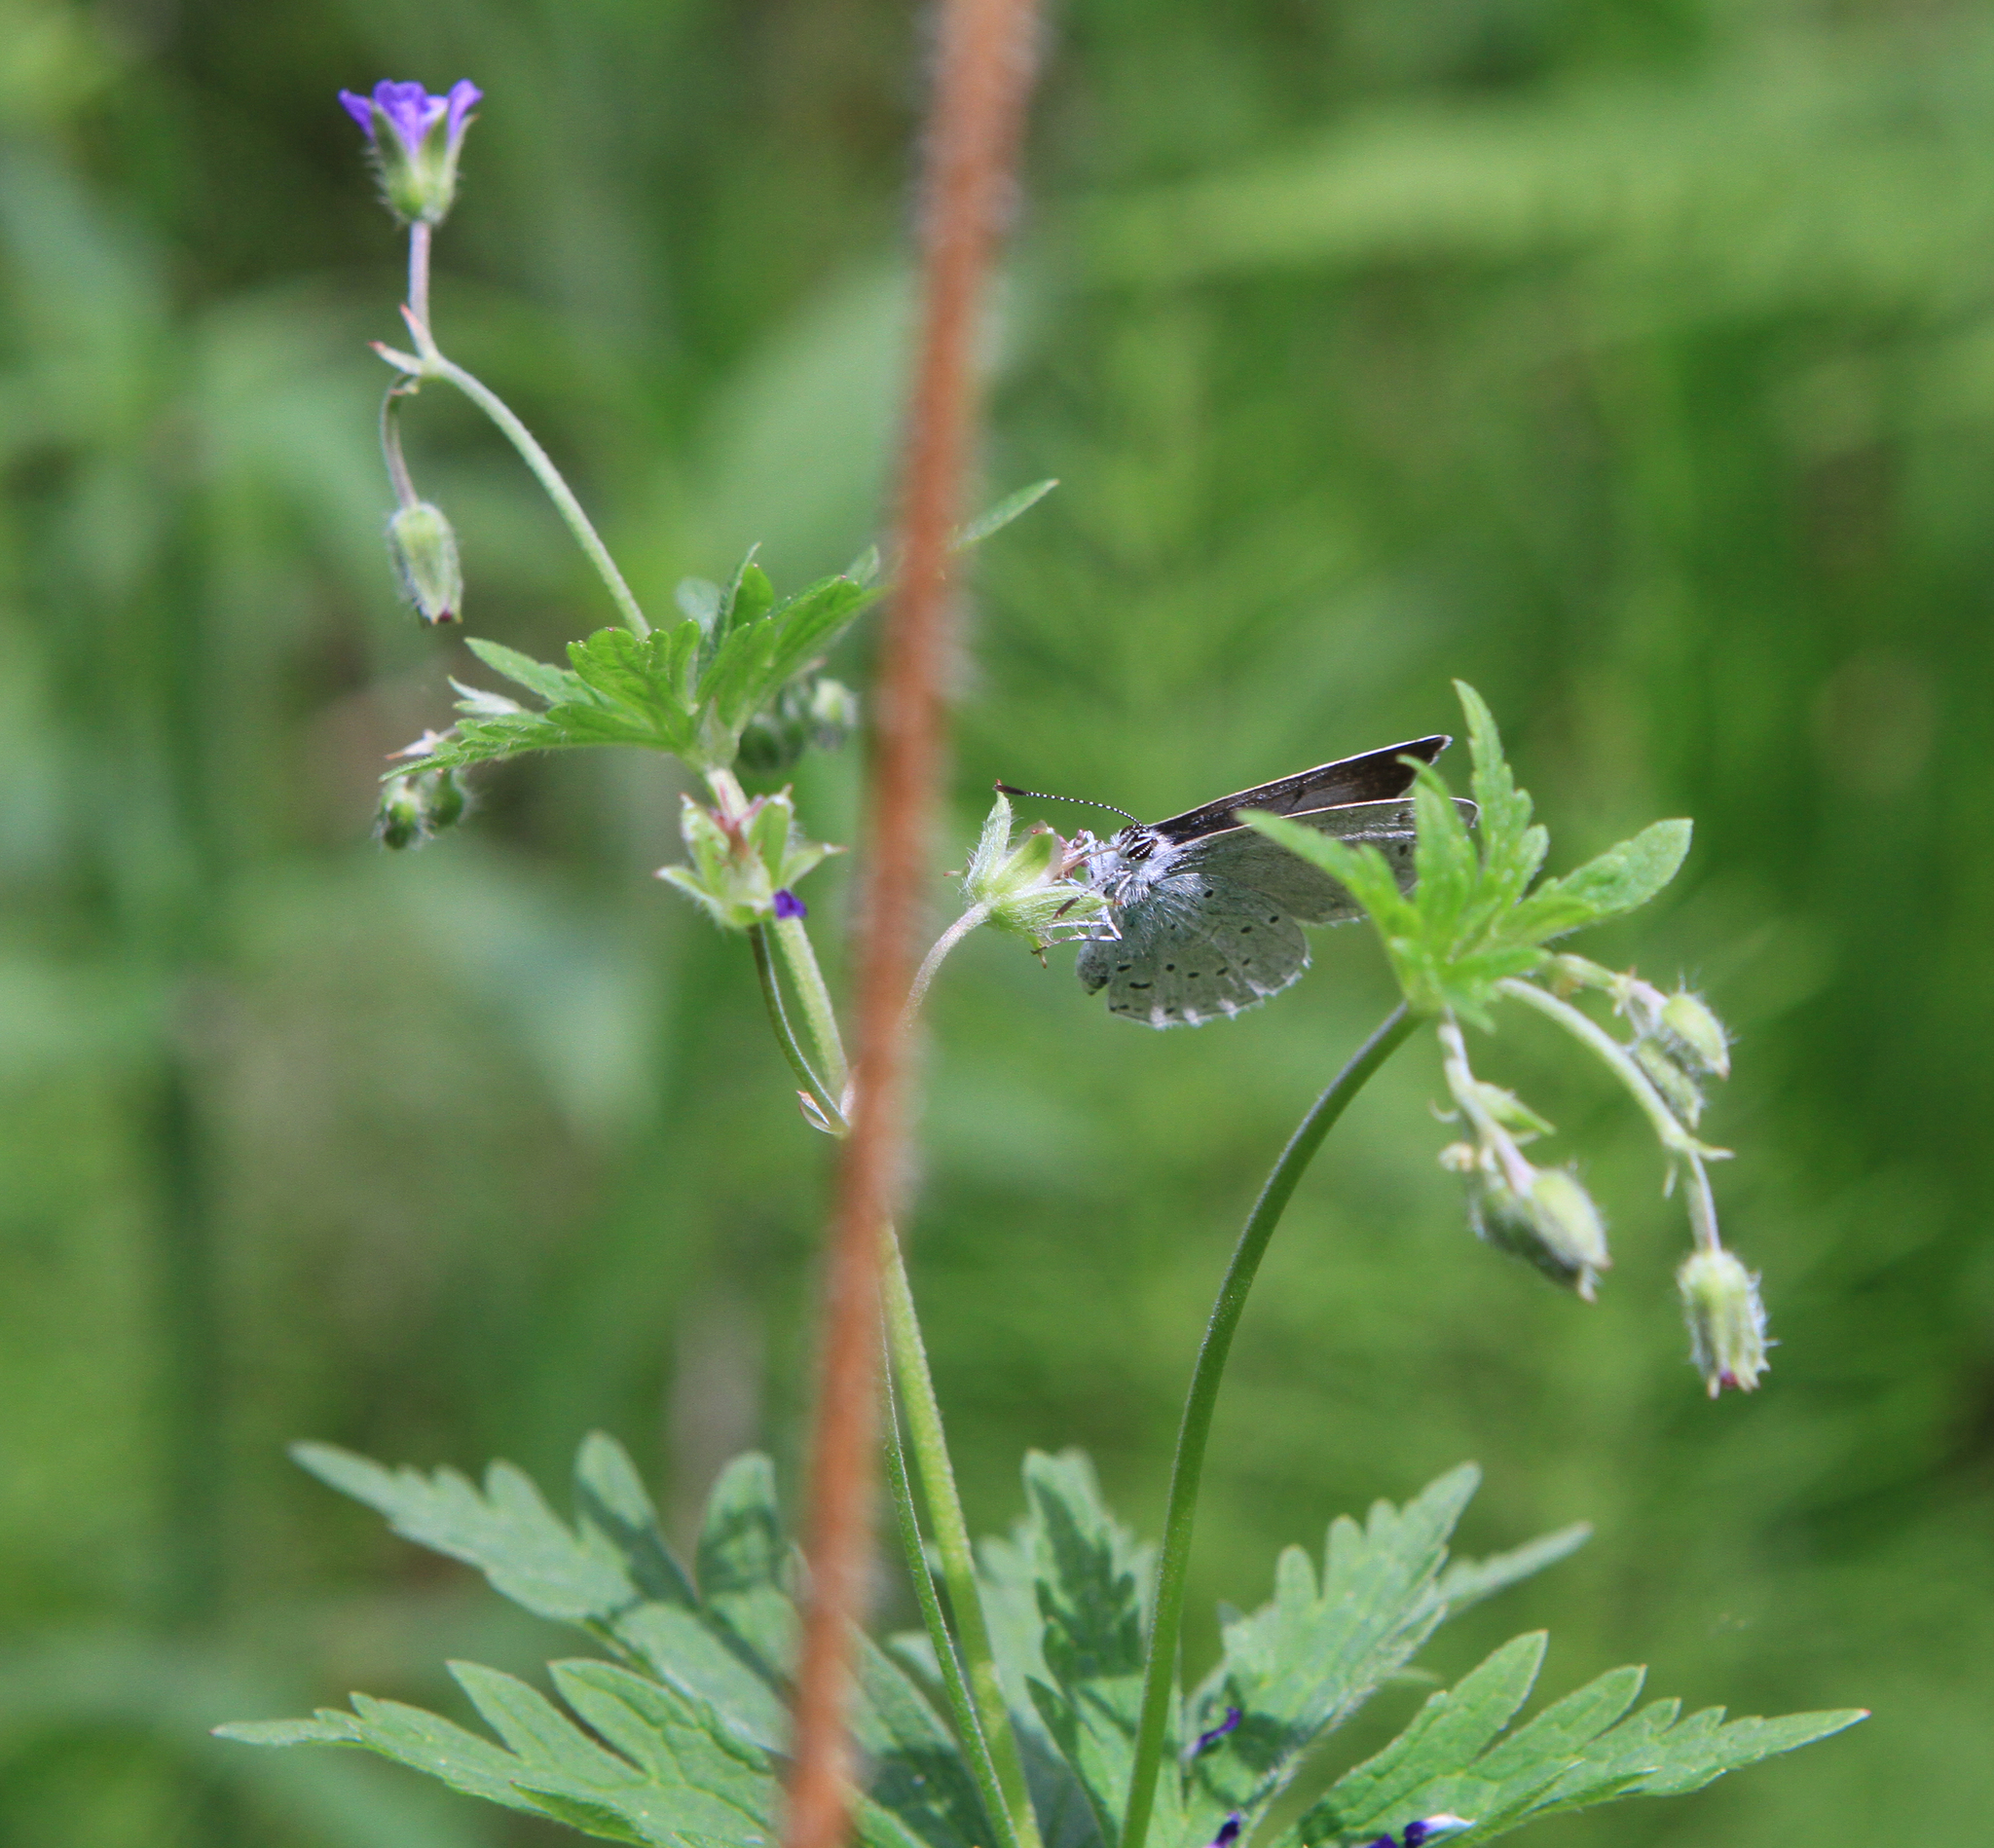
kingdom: Animalia
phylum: Arthropoda
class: Insecta
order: Lepidoptera
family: Lycaenidae
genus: Celastrina
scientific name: Celastrina argiolus
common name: Holly blue
